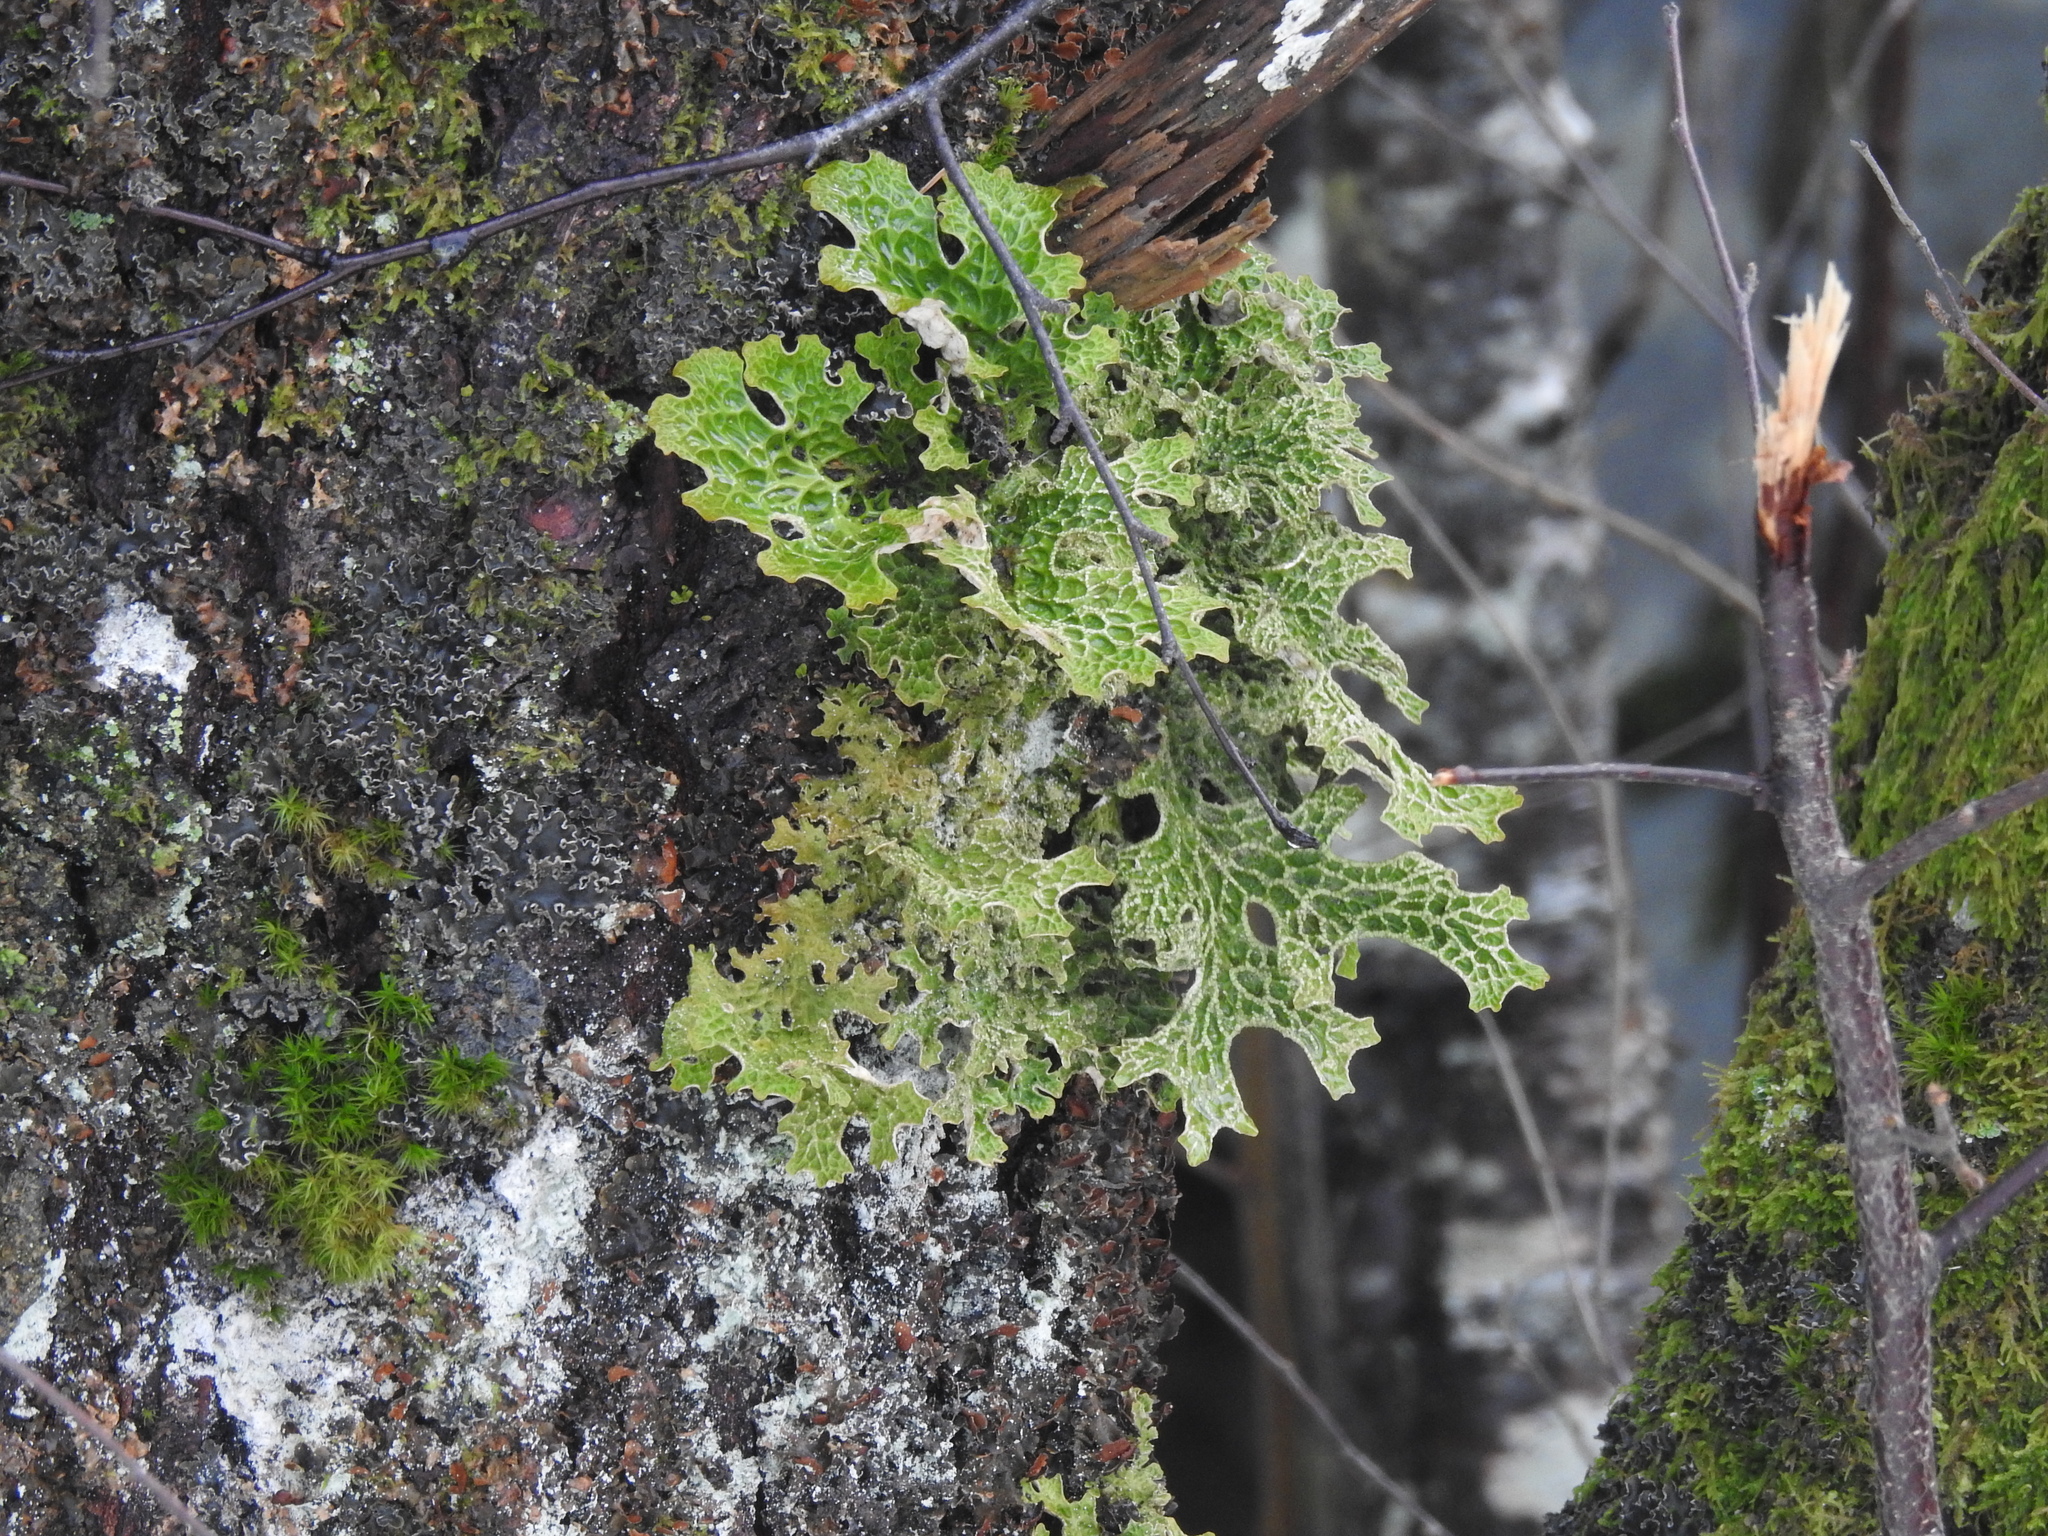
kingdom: Fungi
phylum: Ascomycota
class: Lecanoromycetes
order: Peltigerales
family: Lobariaceae
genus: Lobaria
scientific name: Lobaria pulmonaria
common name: Lungwort
